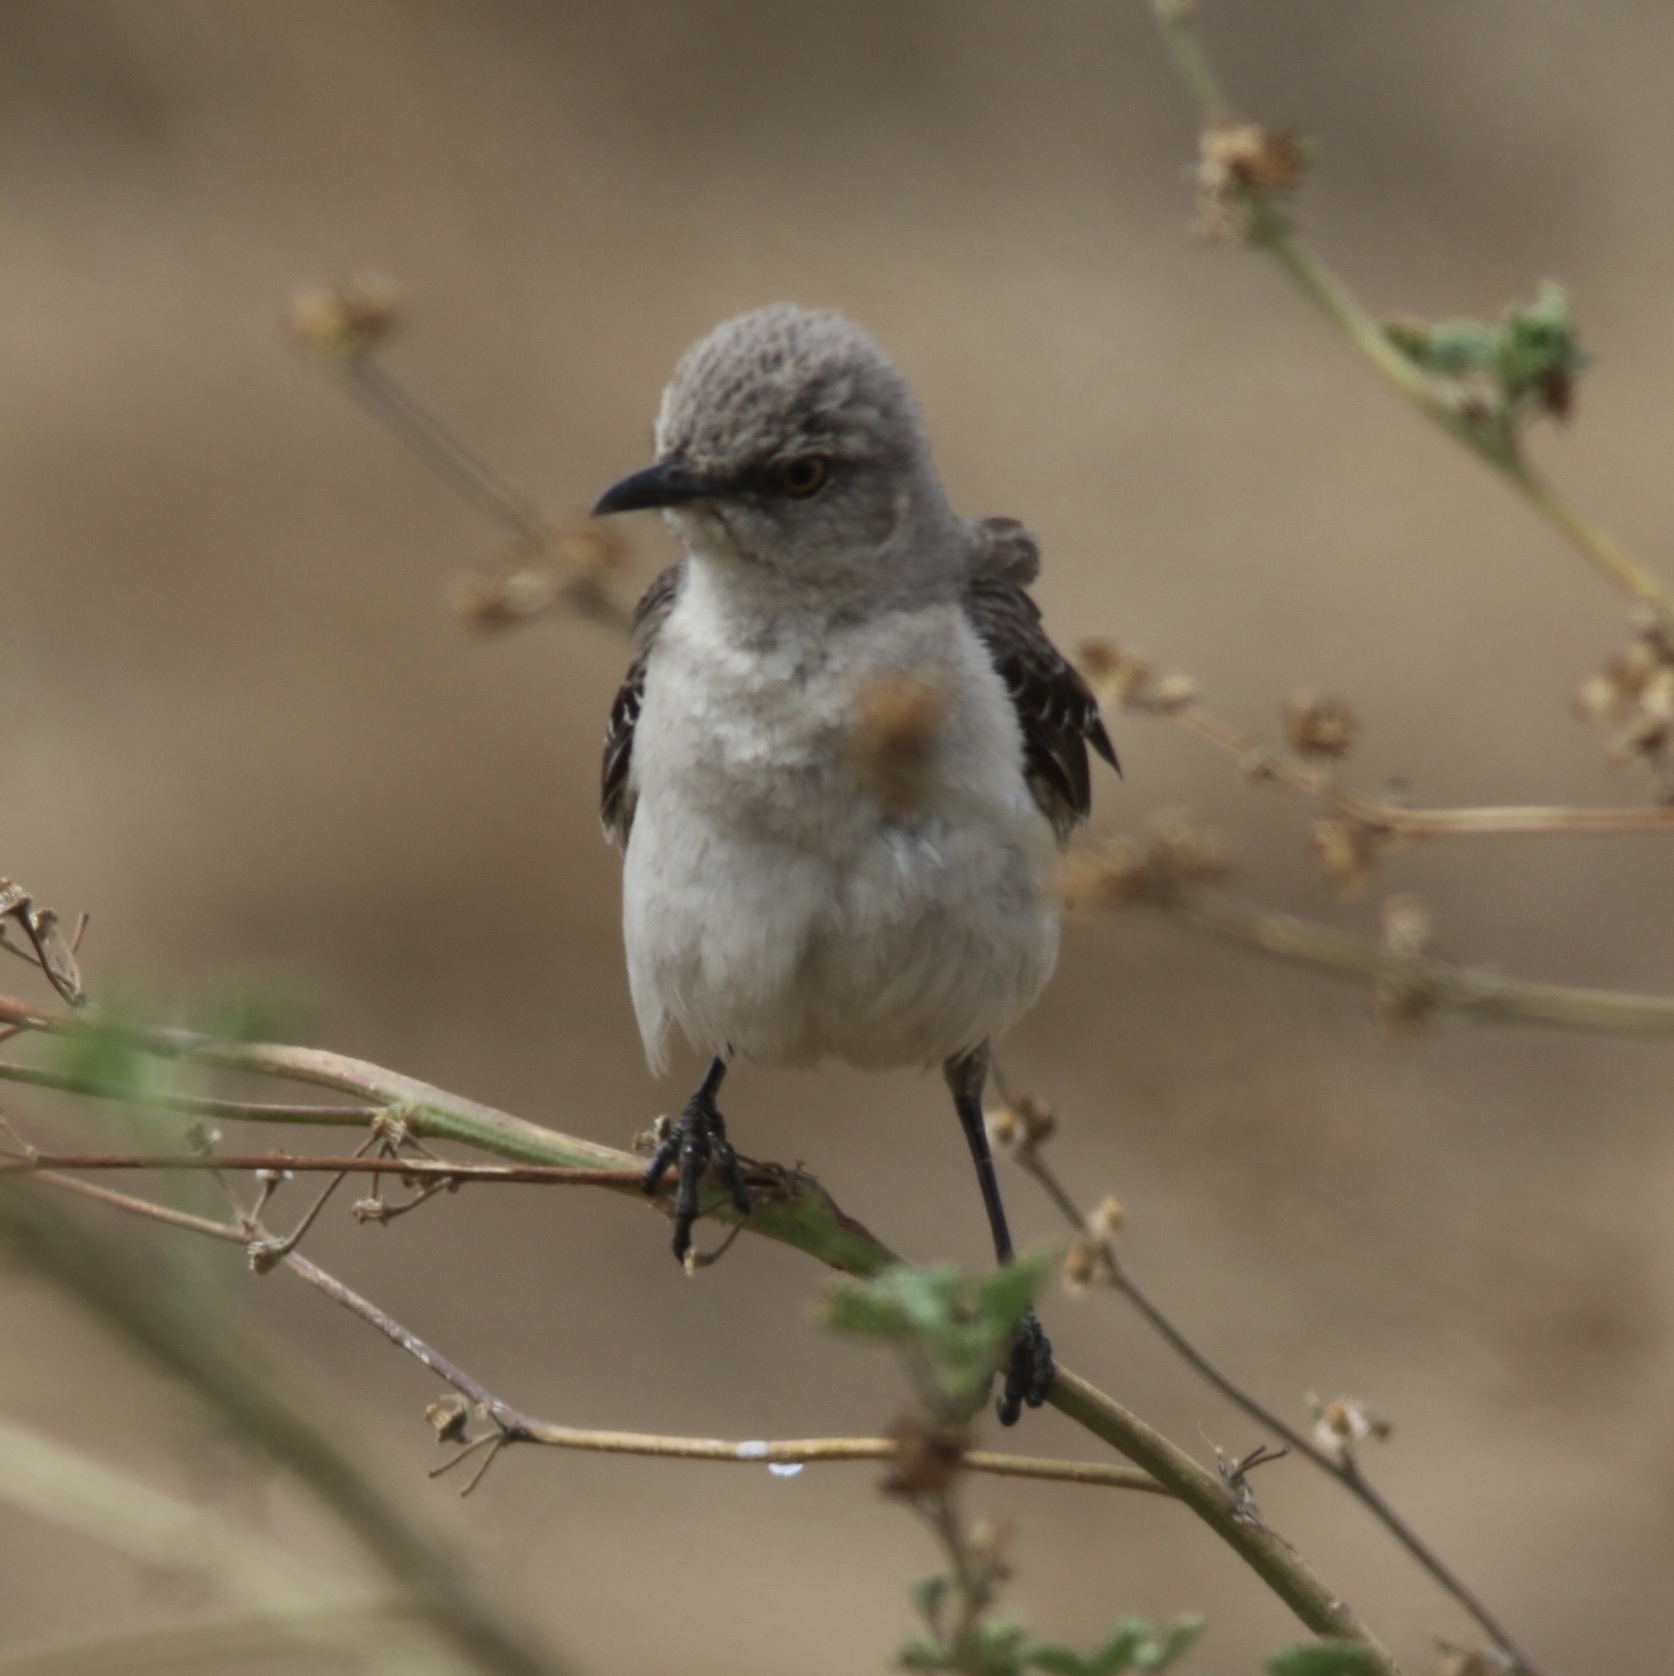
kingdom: Animalia
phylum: Chordata
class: Aves
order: Passeriformes
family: Mimidae
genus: Mimus
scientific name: Mimus polyglottos
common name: Northern mockingbird
